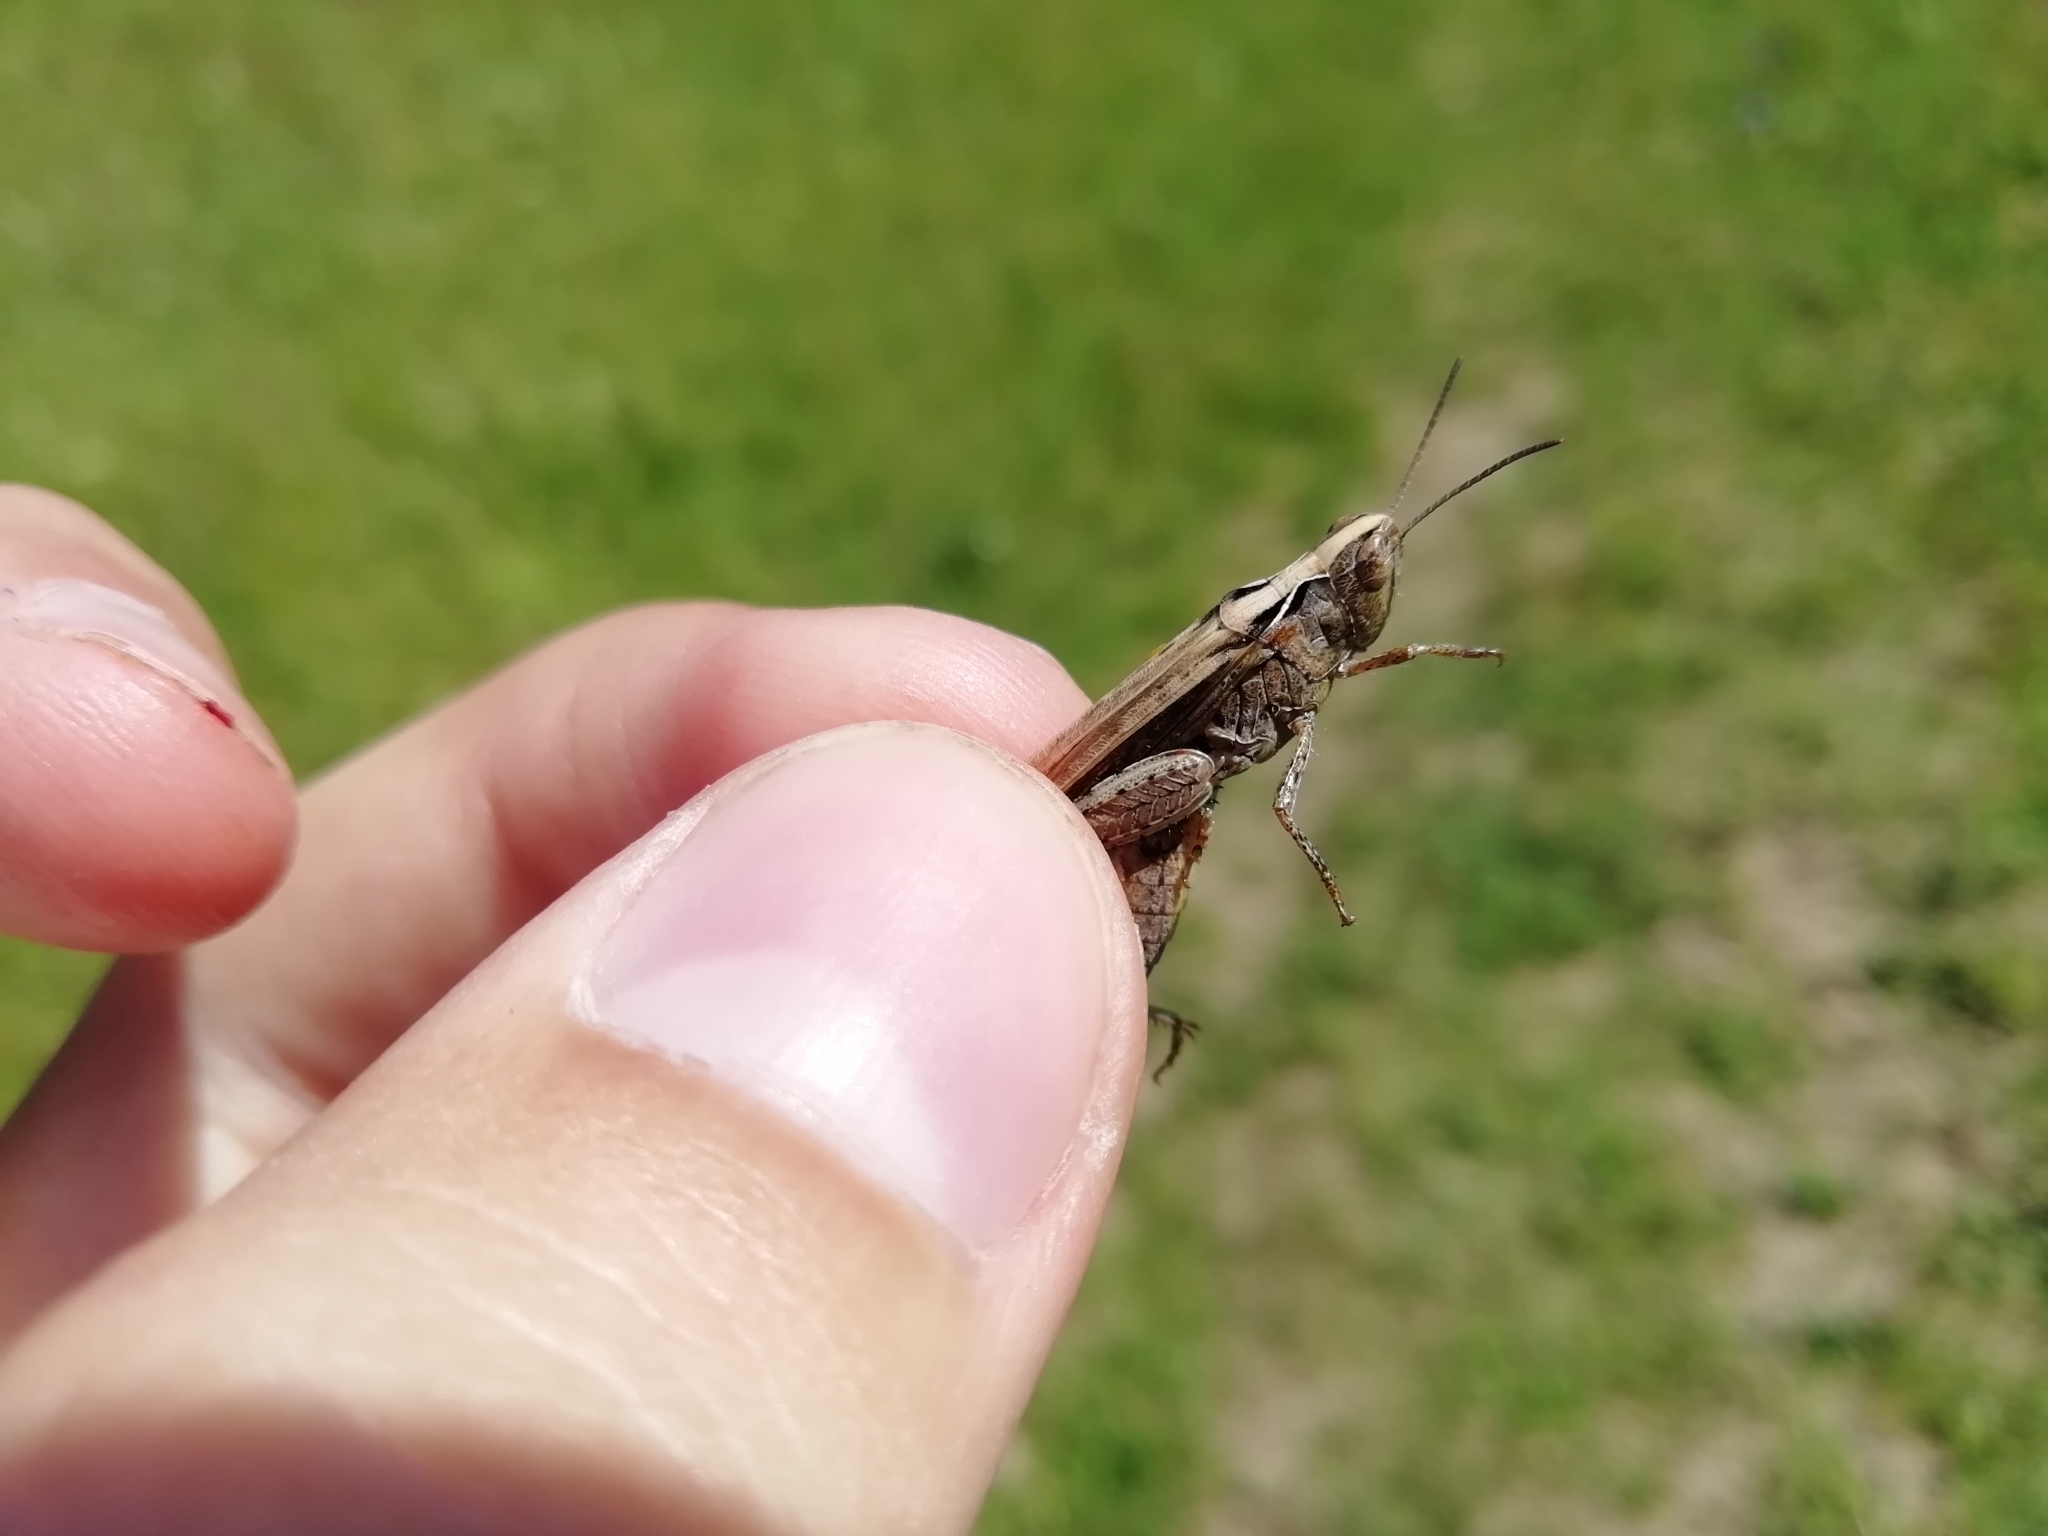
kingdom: Animalia
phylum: Arthropoda
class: Insecta
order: Orthoptera
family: Acrididae
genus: Chorthippus
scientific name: Chorthippus biguttulus
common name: Bow-winged grasshopper
